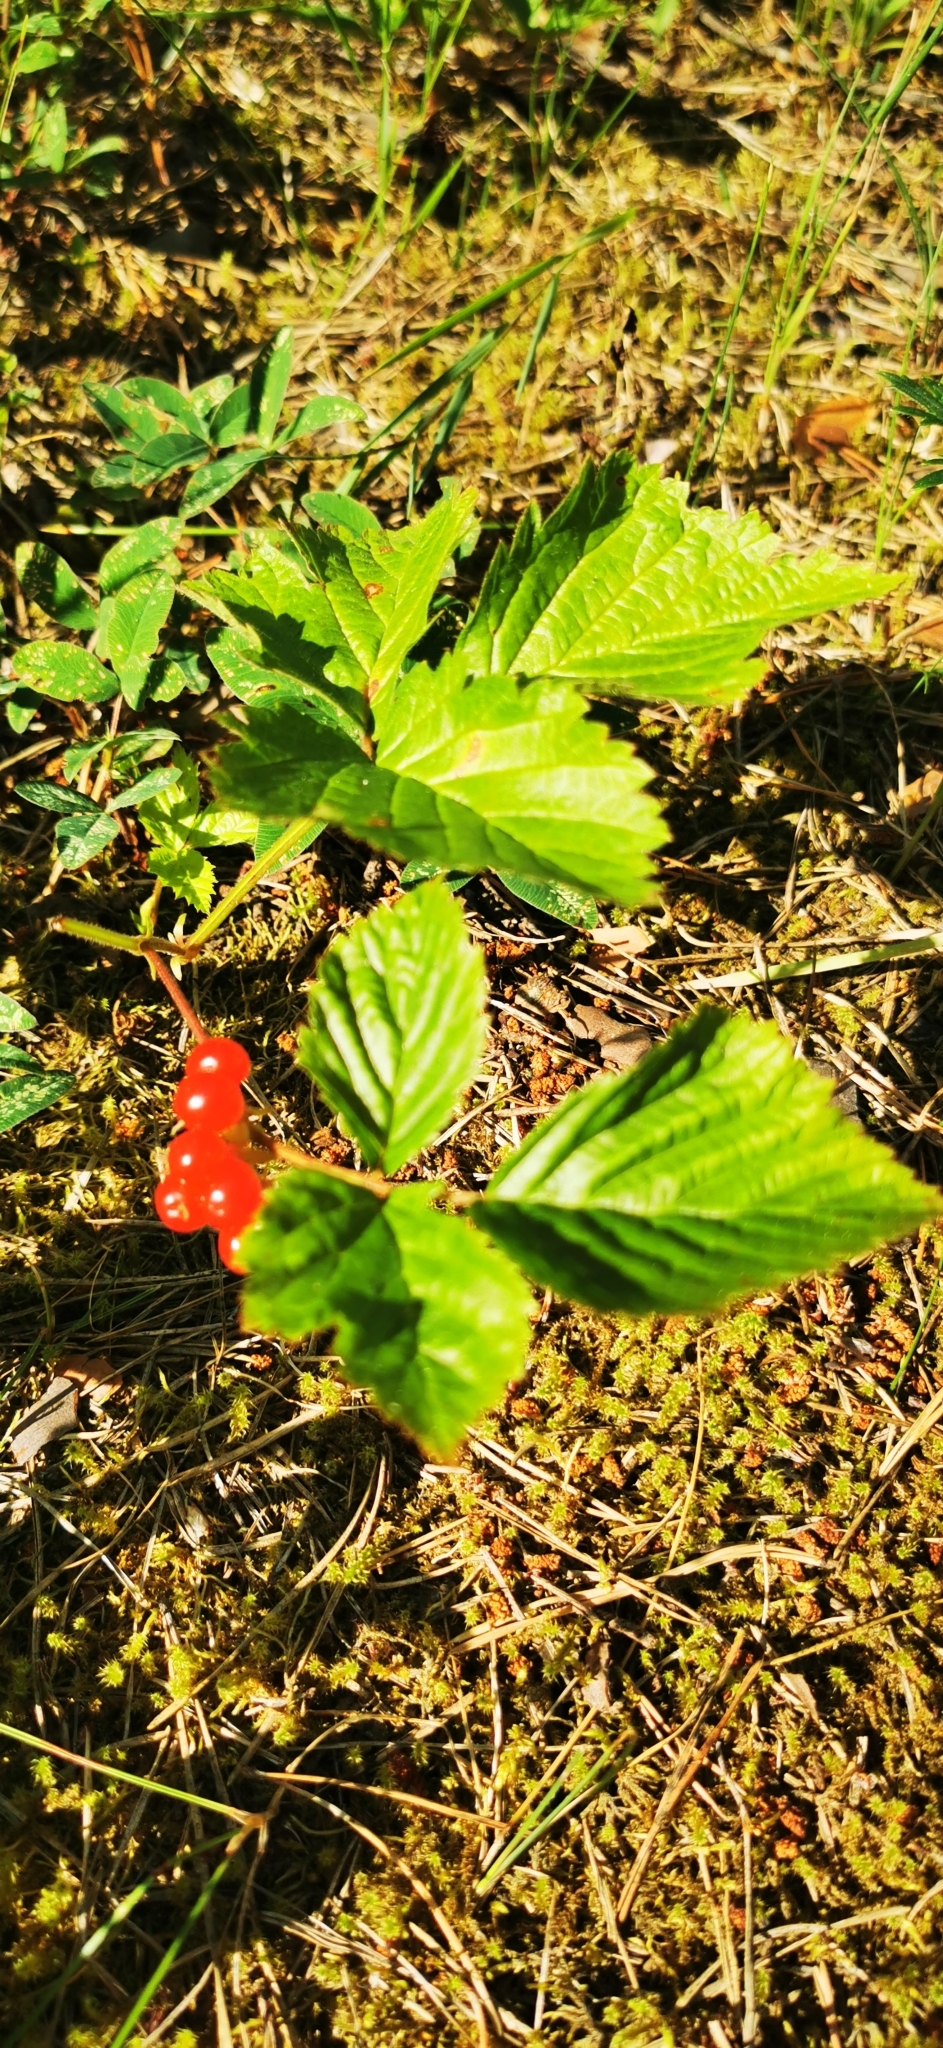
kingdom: Plantae
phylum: Tracheophyta
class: Magnoliopsida
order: Rosales
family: Rosaceae
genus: Rubus
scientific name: Rubus saxatilis
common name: Stone bramble
